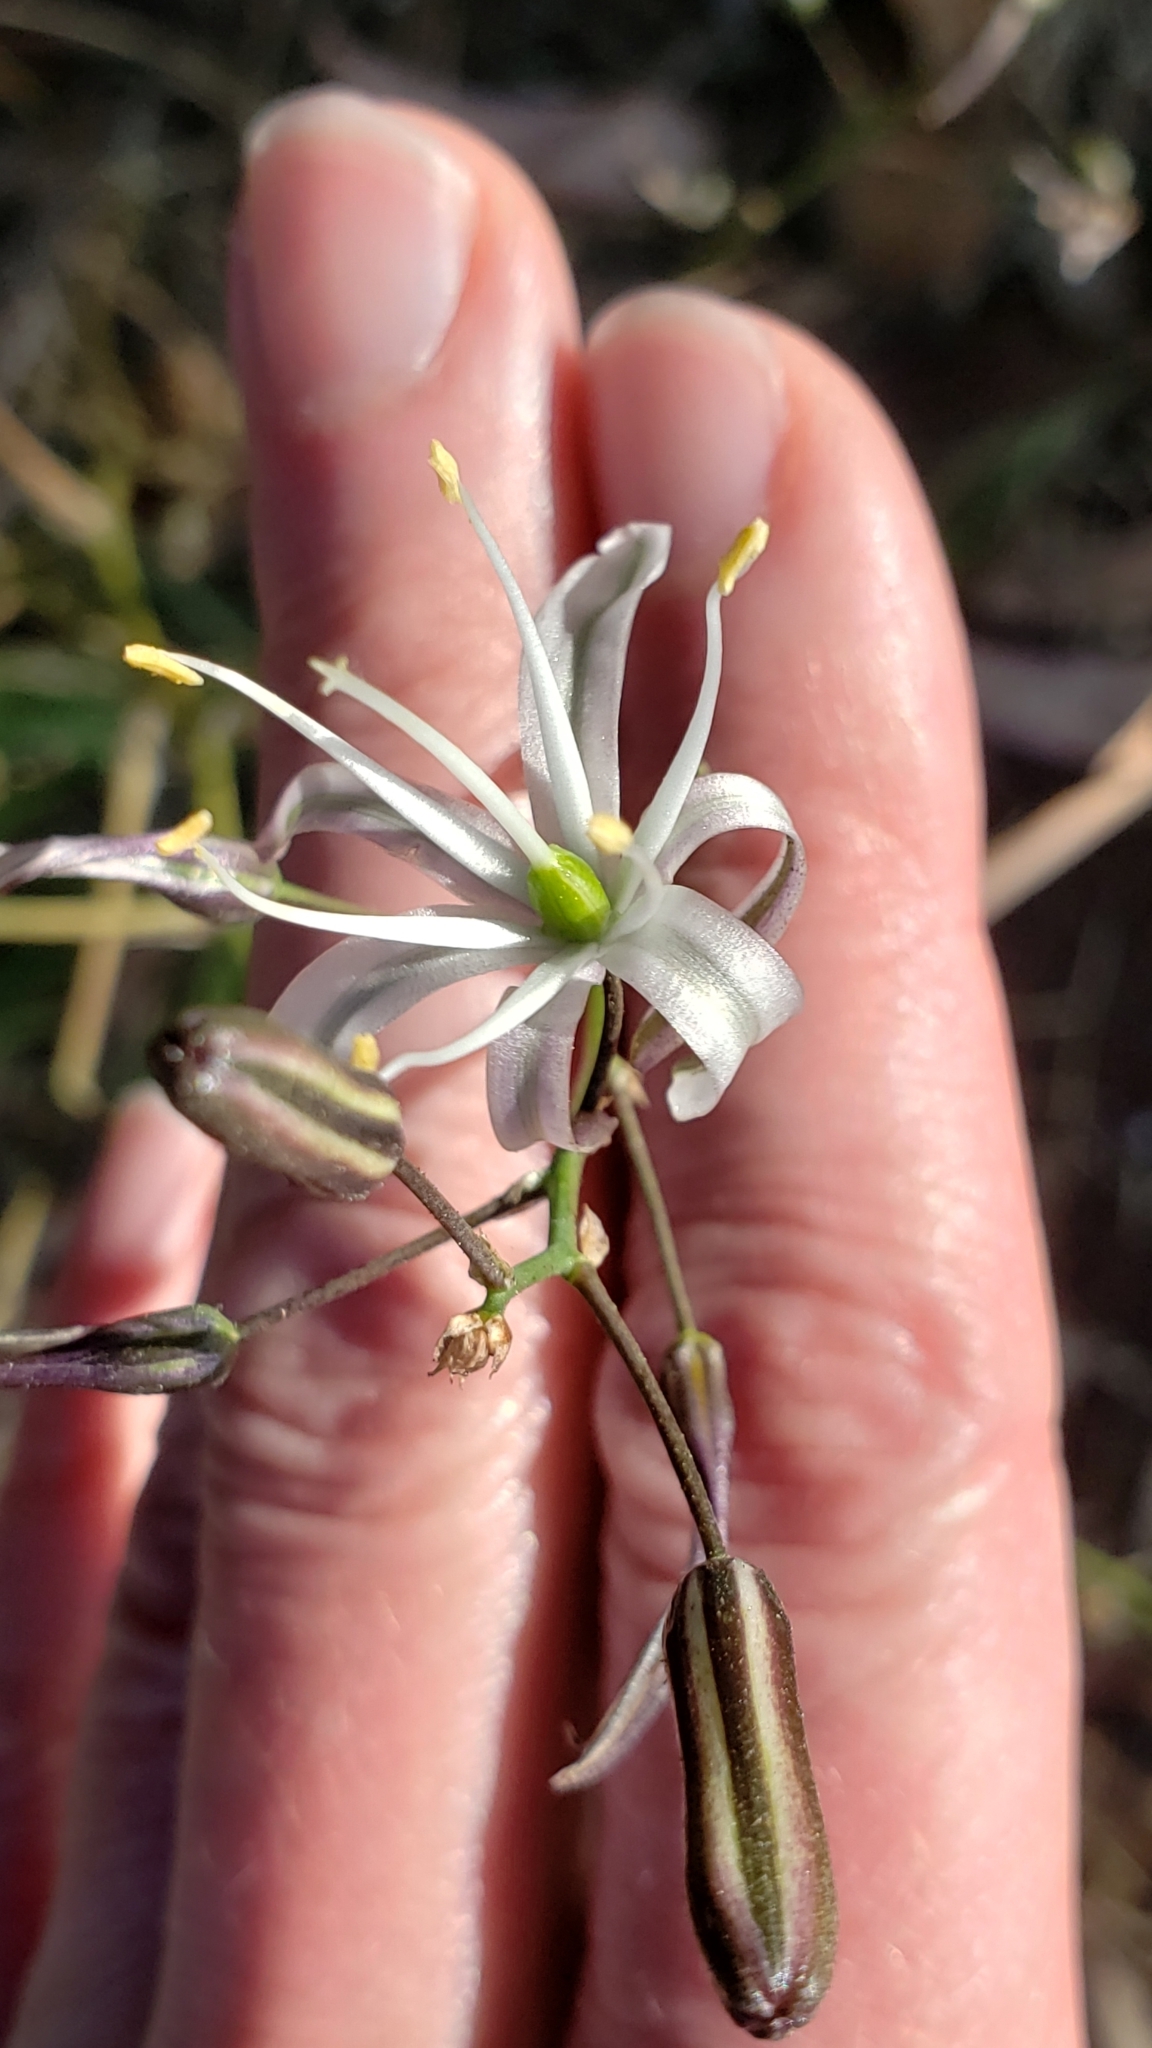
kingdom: Plantae
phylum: Tracheophyta
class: Liliopsida
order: Asparagales
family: Asparagaceae
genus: Chlorogalum
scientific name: Chlorogalum pomeridianum
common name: Amole
